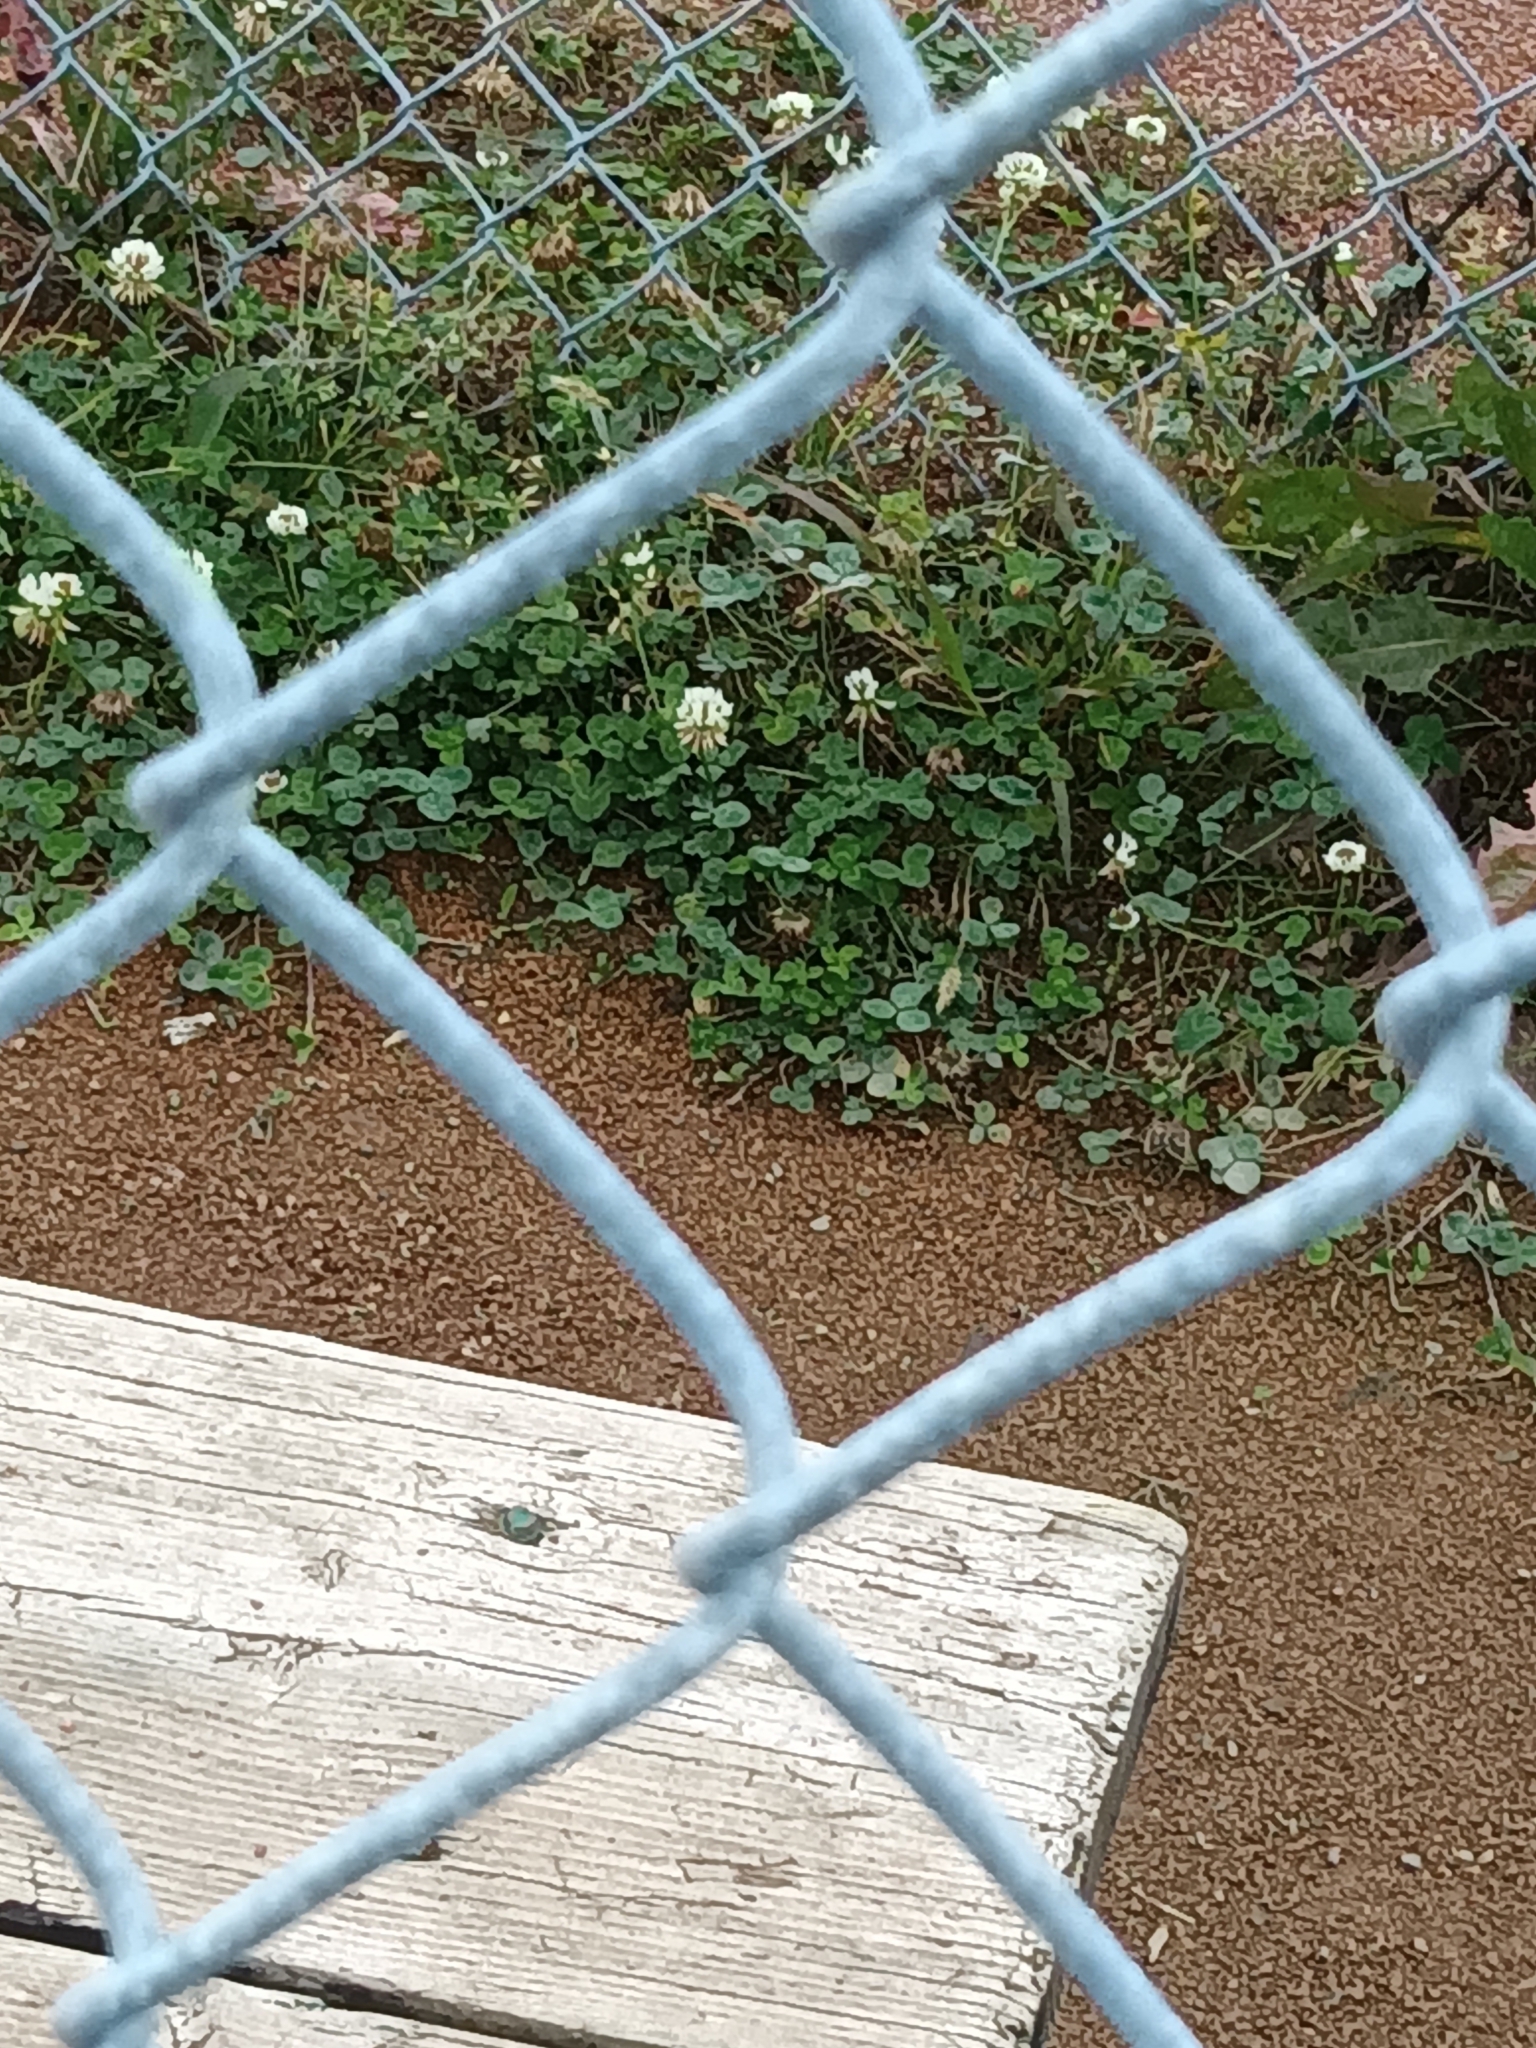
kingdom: Plantae
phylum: Tracheophyta
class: Magnoliopsida
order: Fabales
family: Fabaceae
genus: Trifolium
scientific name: Trifolium repens
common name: White clover
